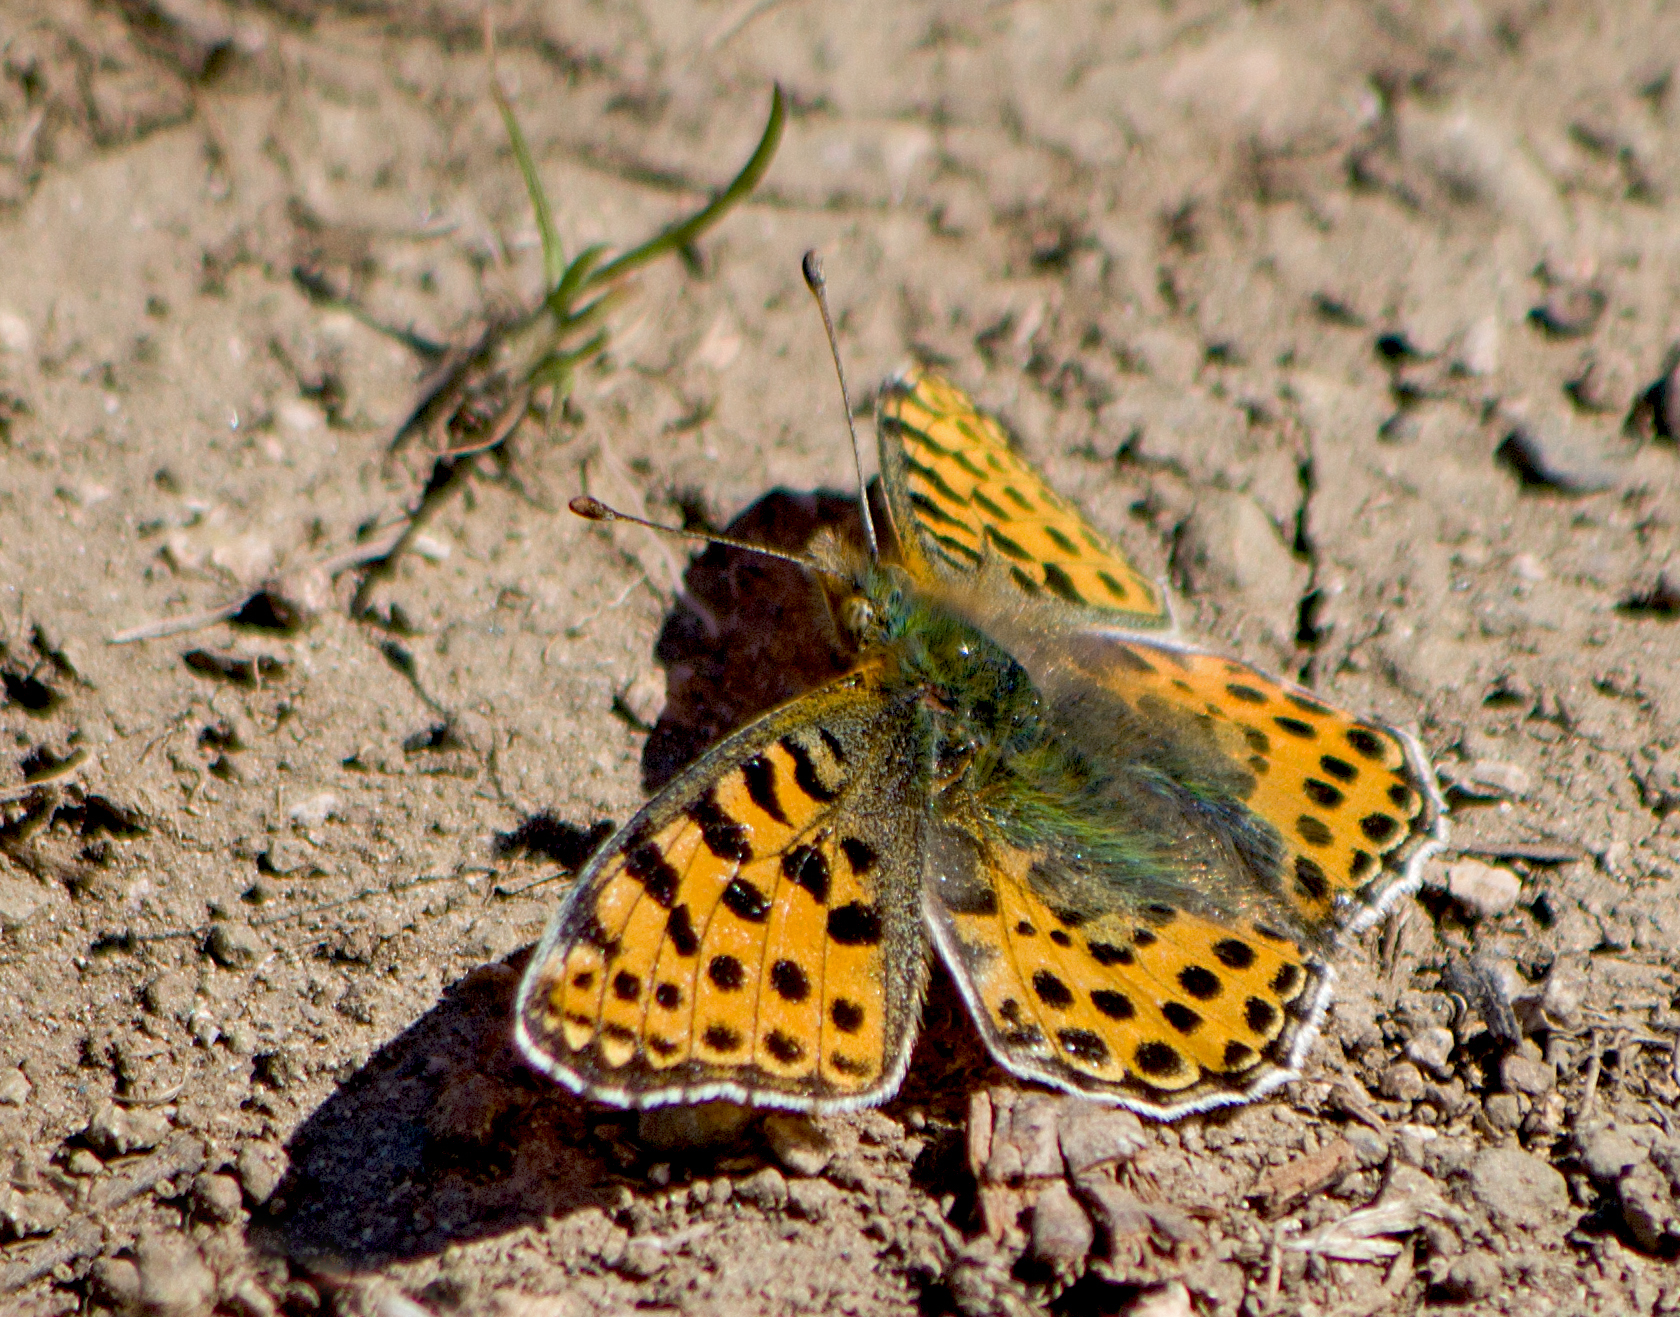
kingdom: Animalia
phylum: Arthropoda
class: Insecta
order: Lepidoptera
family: Nymphalidae
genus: Issoria
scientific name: Issoria lathonia
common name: Queen of spain fritillary
